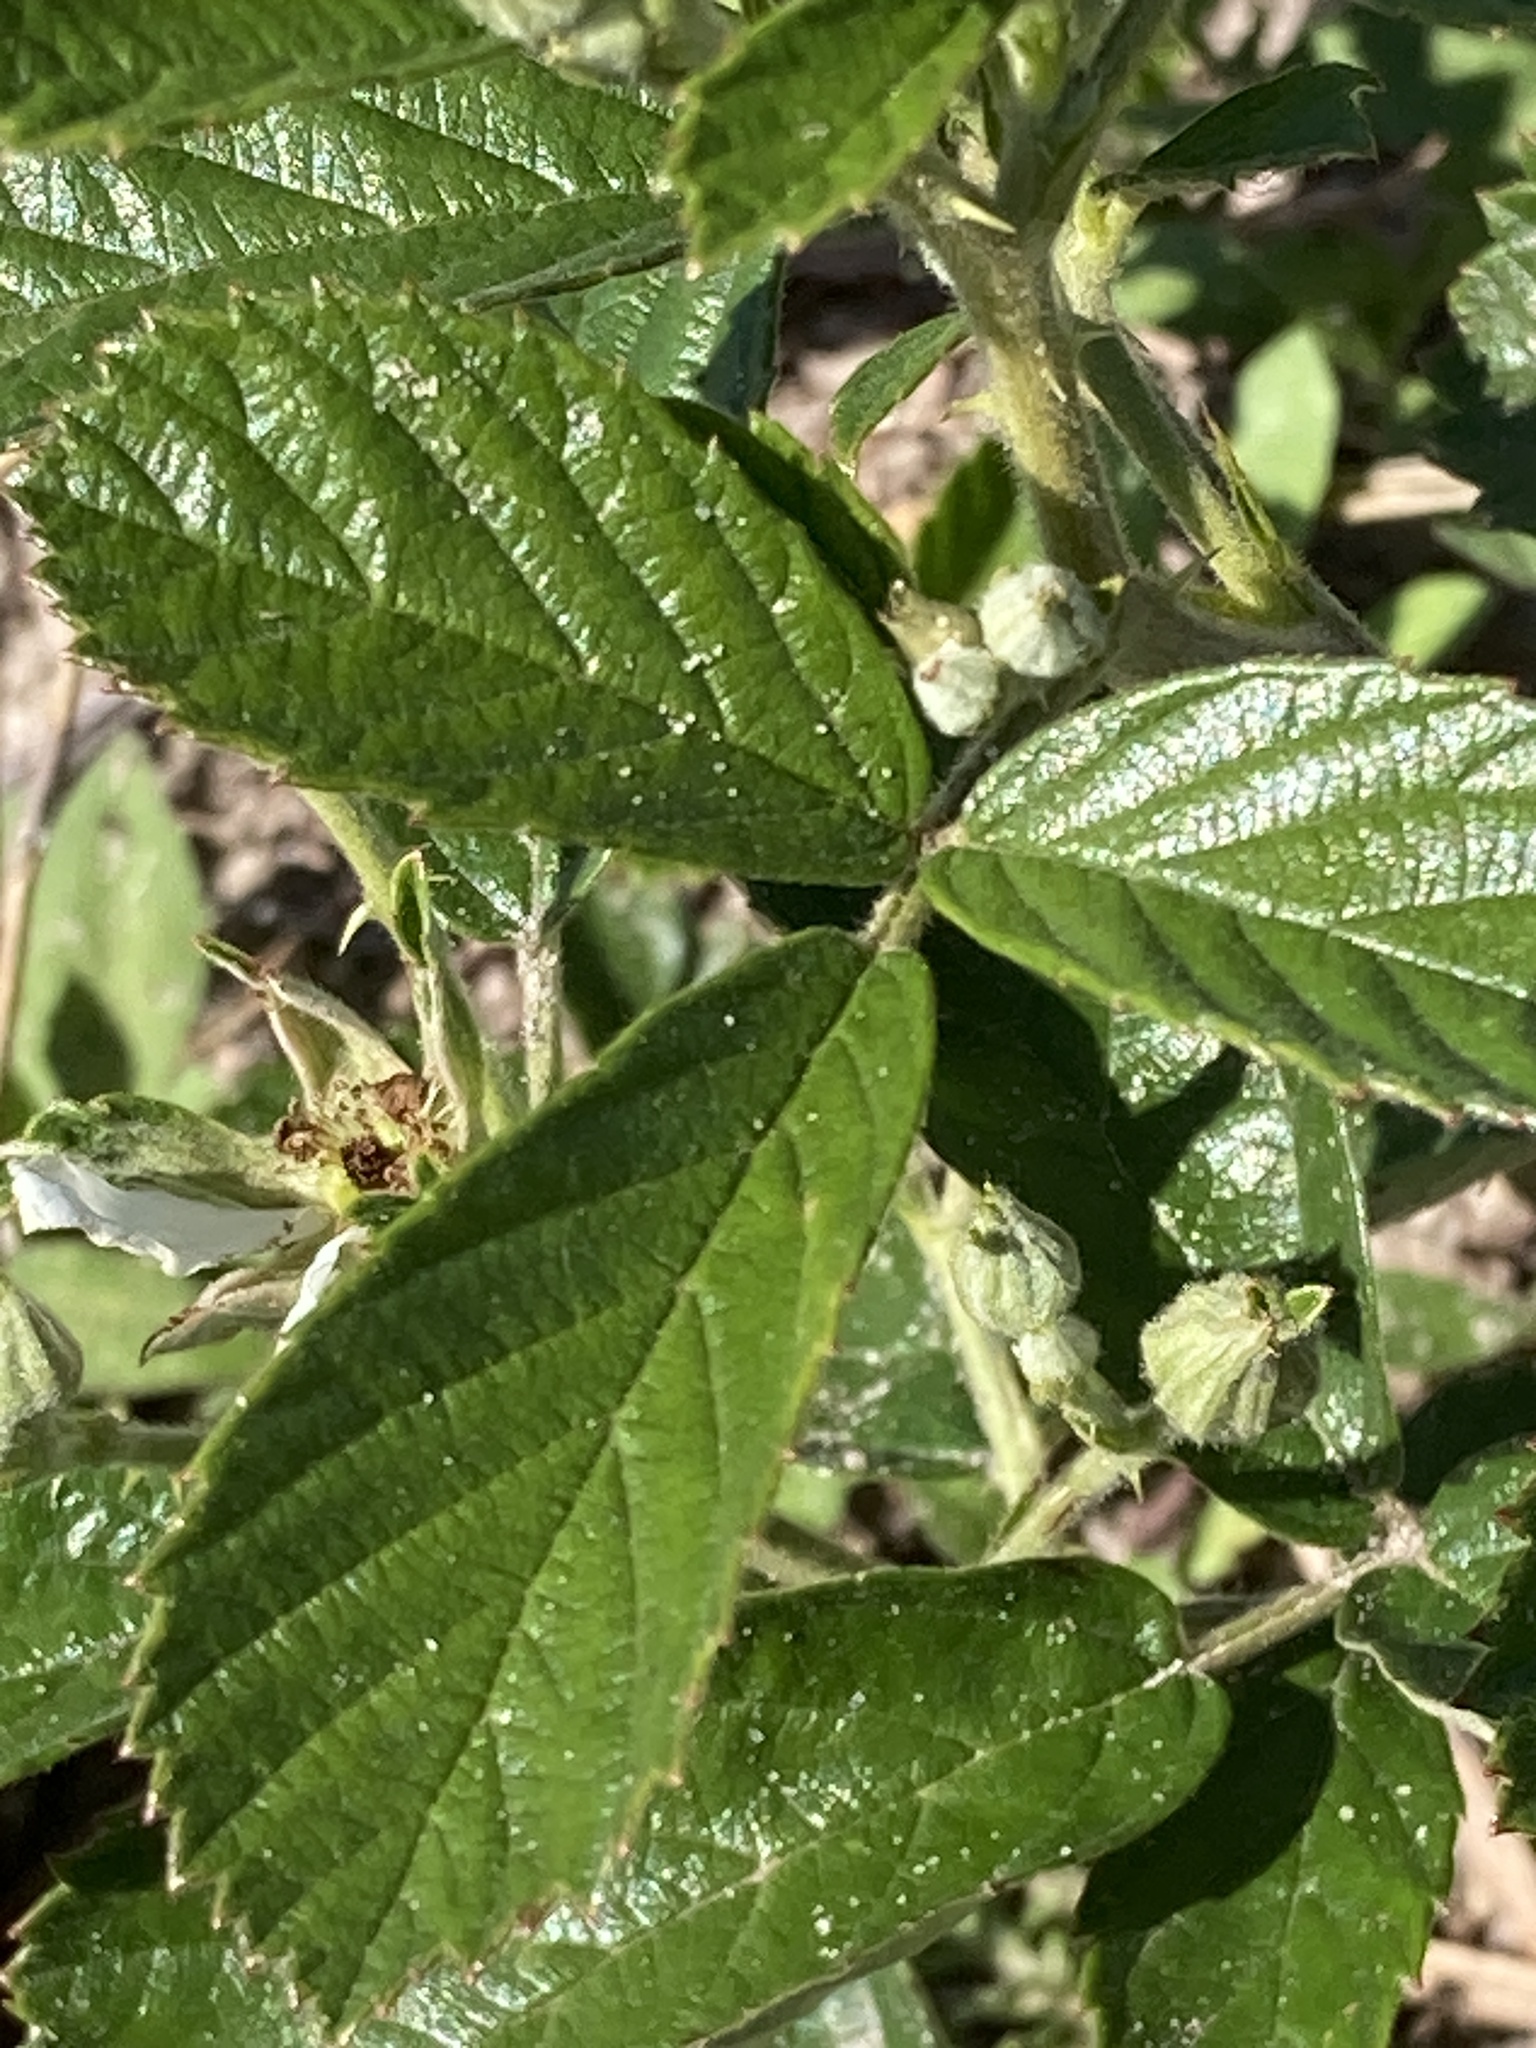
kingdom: Plantae
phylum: Tracheophyta
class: Magnoliopsida
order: Rosales
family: Rosaceae
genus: Rubus
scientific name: Rubus cuneifolius
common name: American bramble
